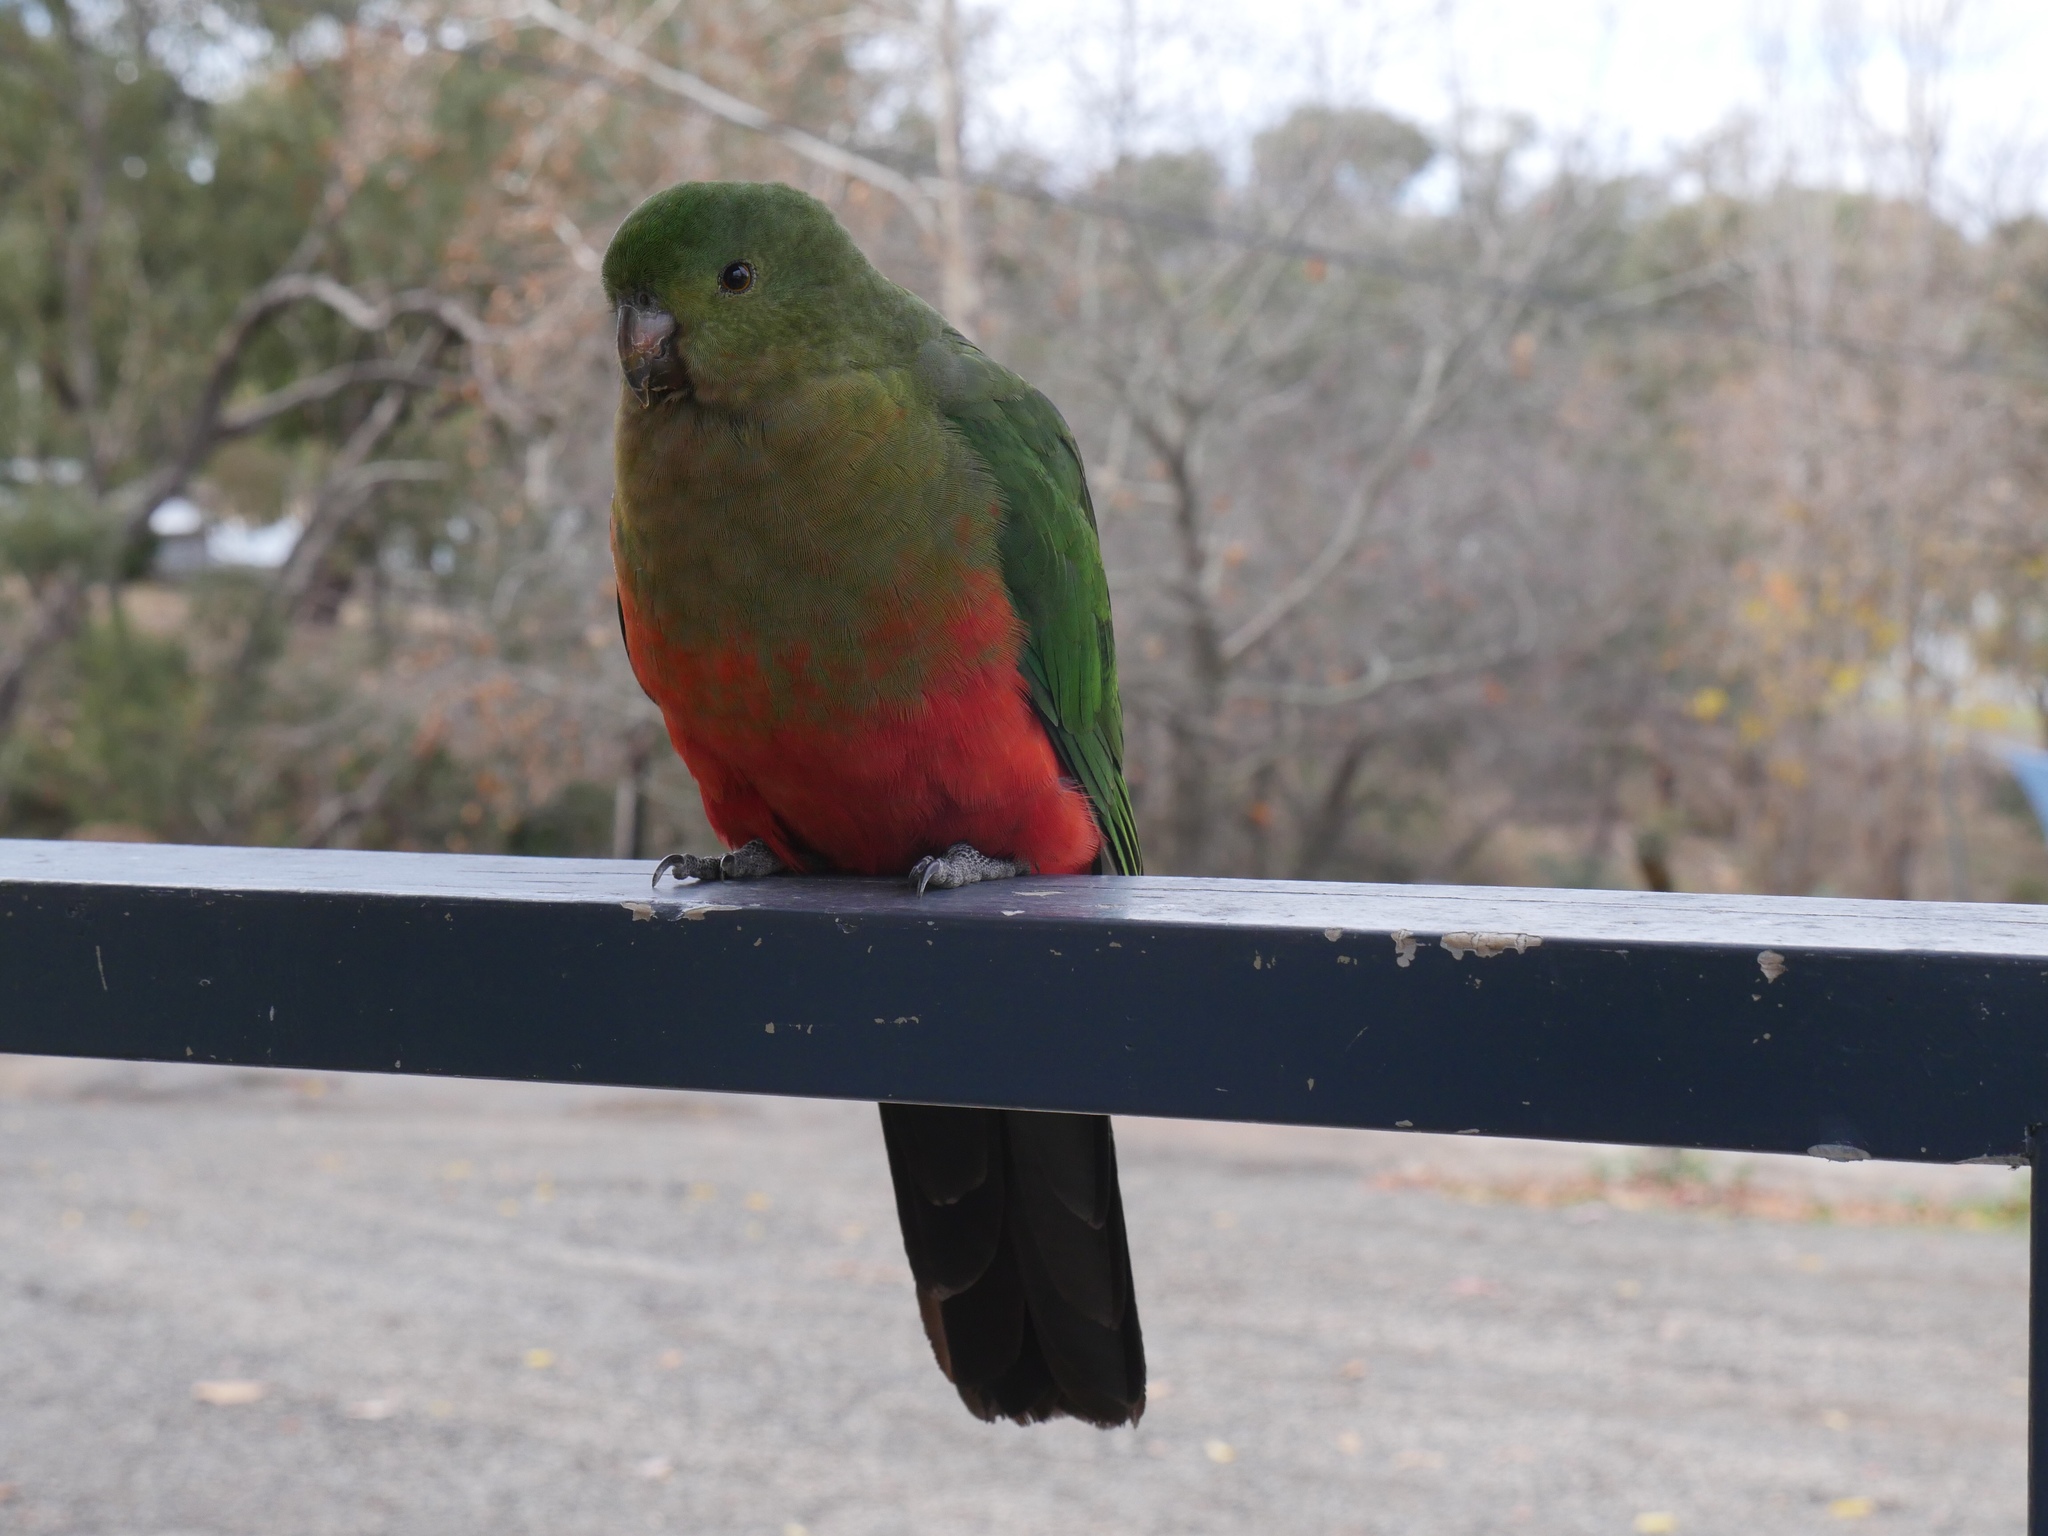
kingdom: Animalia
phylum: Chordata
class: Aves
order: Psittaciformes
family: Psittacidae
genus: Alisterus
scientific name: Alisterus scapularis
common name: Australian king parrot
